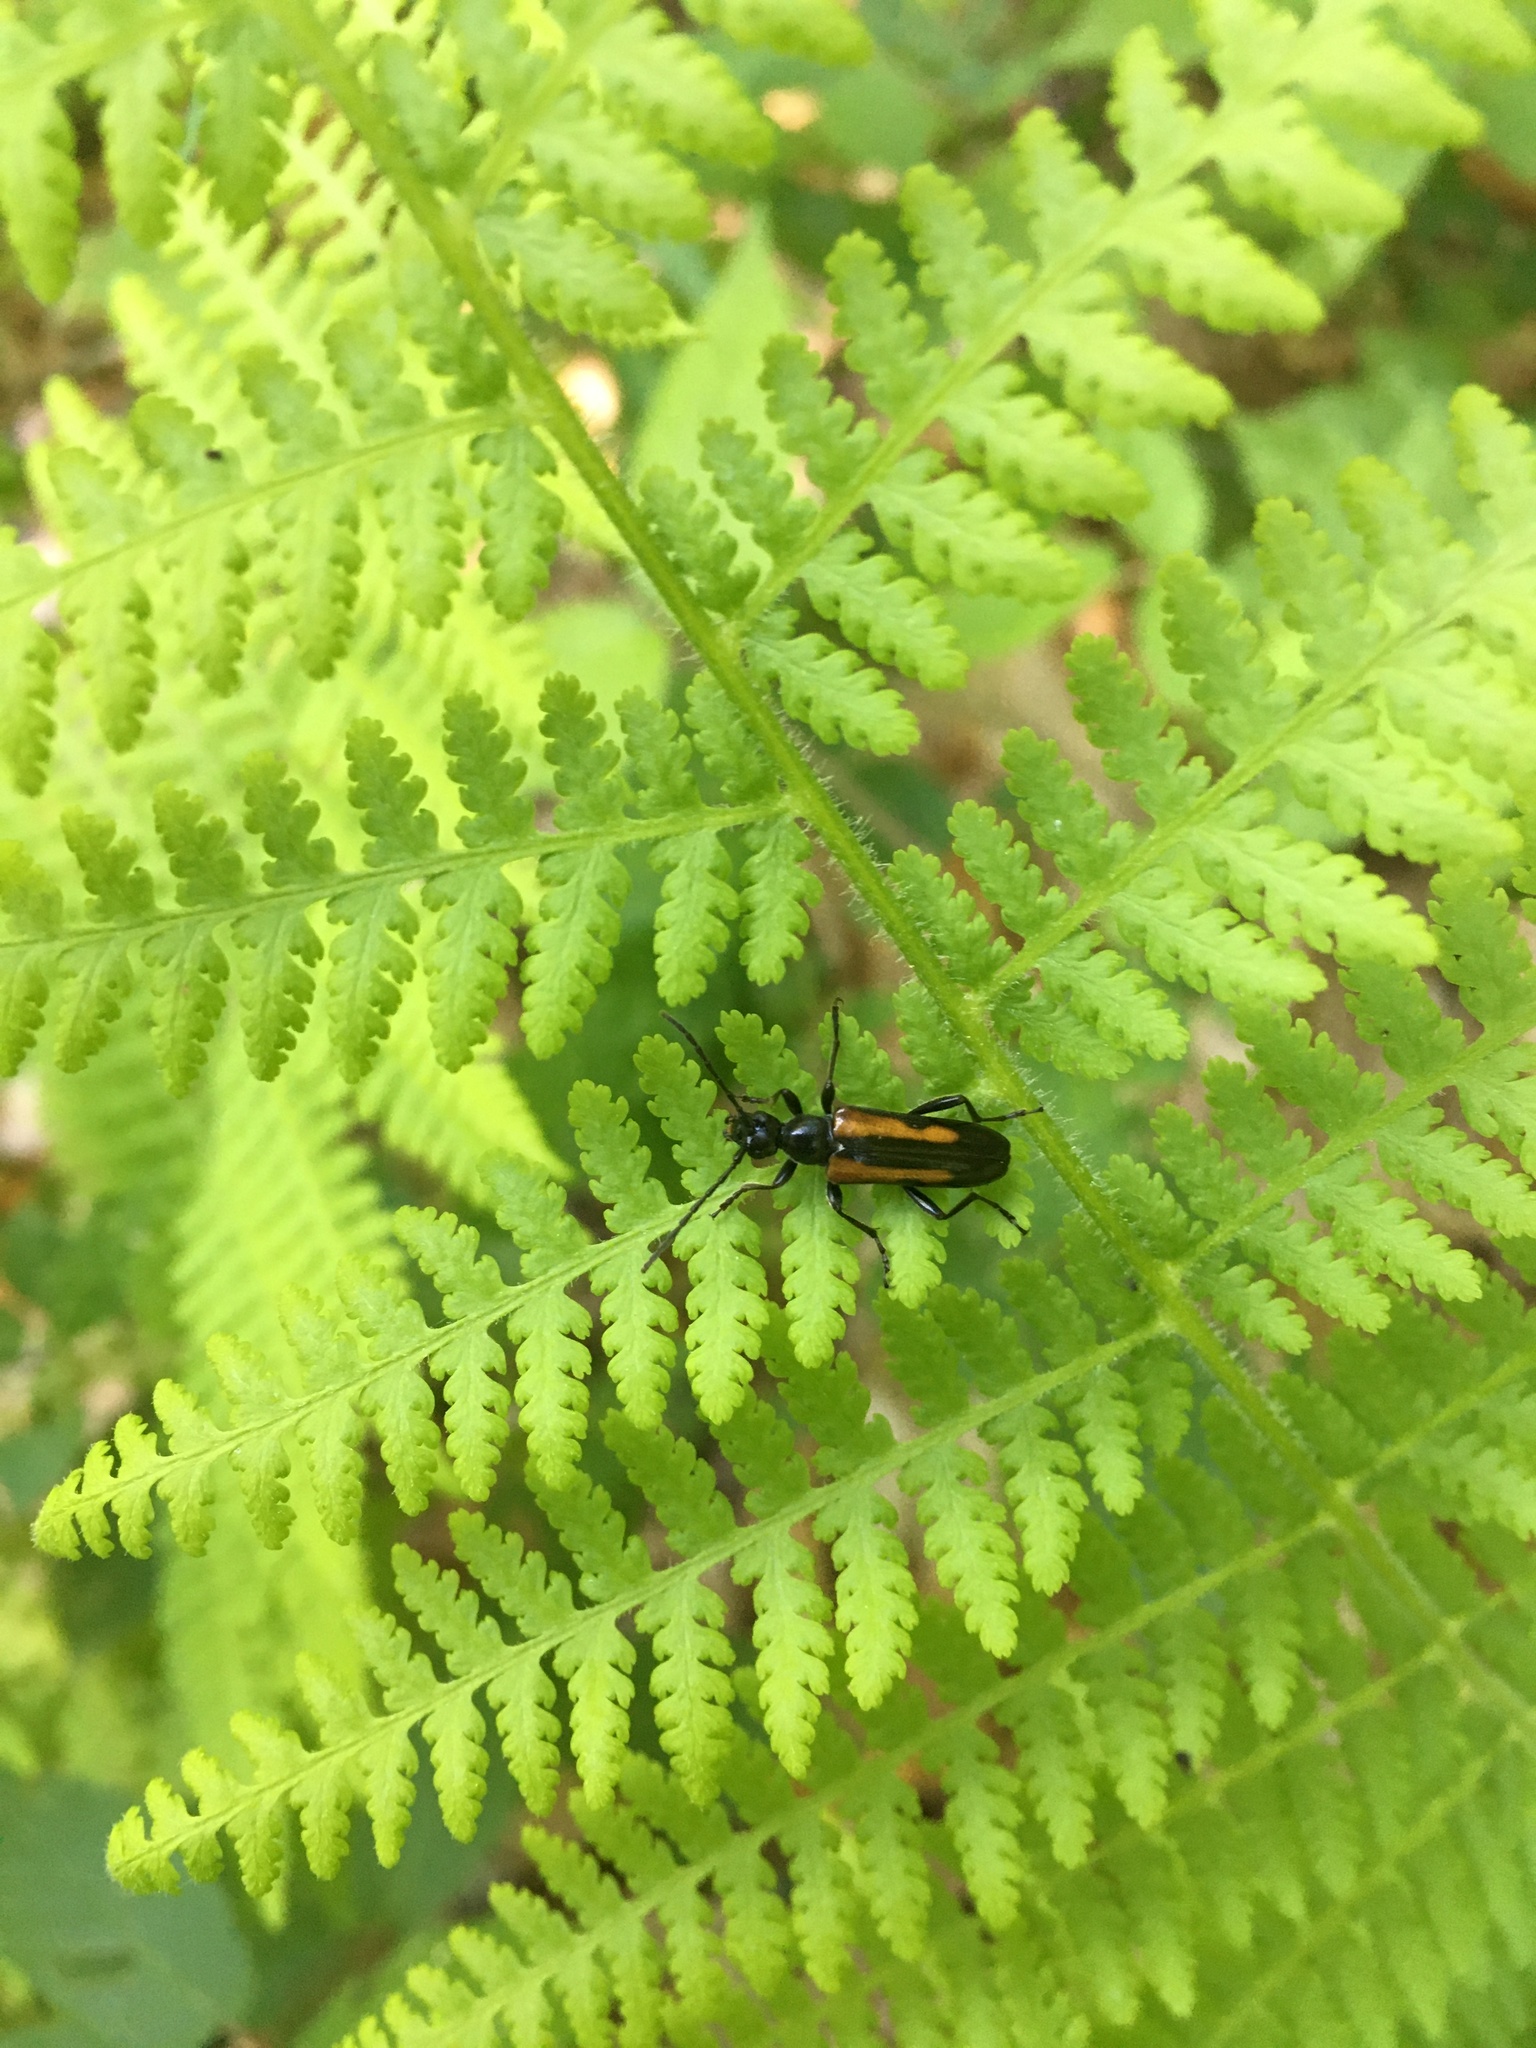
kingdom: Animalia
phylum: Arthropoda
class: Insecta
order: Coleoptera
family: Cerambycidae
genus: Strangalepta
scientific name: Strangalepta abbreviata
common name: Strangalepta flower longhorn beetle
